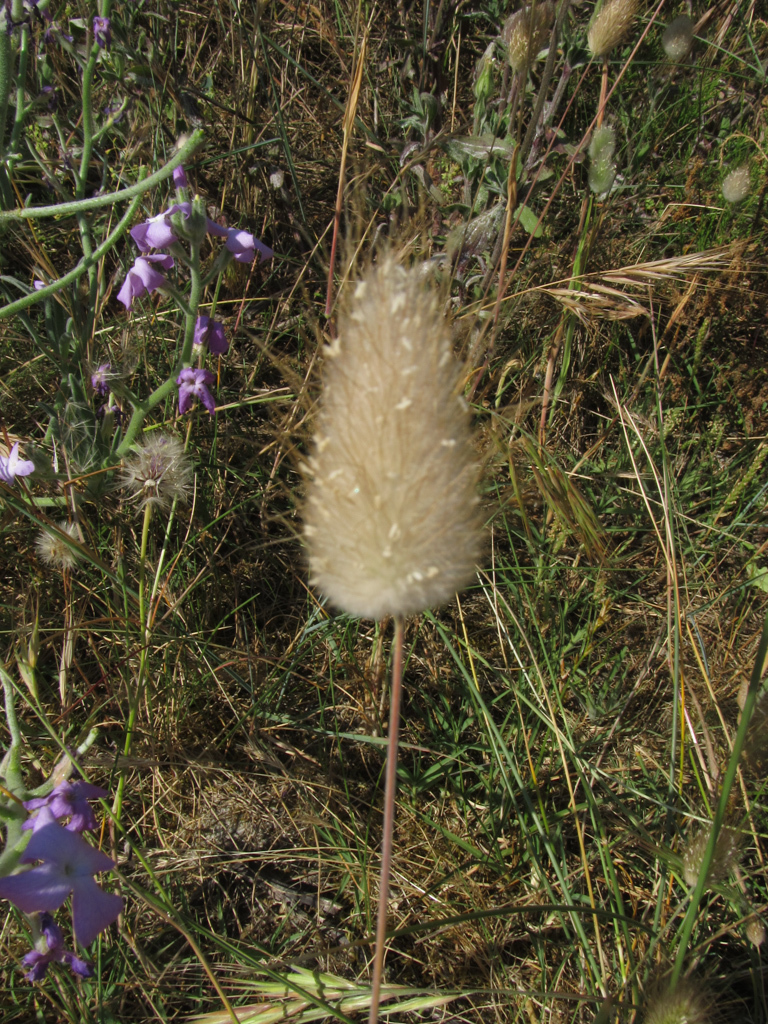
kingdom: Plantae
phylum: Tracheophyta
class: Liliopsida
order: Poales
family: Poaceae
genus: Lagurus
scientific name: Lagurus ovatus
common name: Hare's-tail
